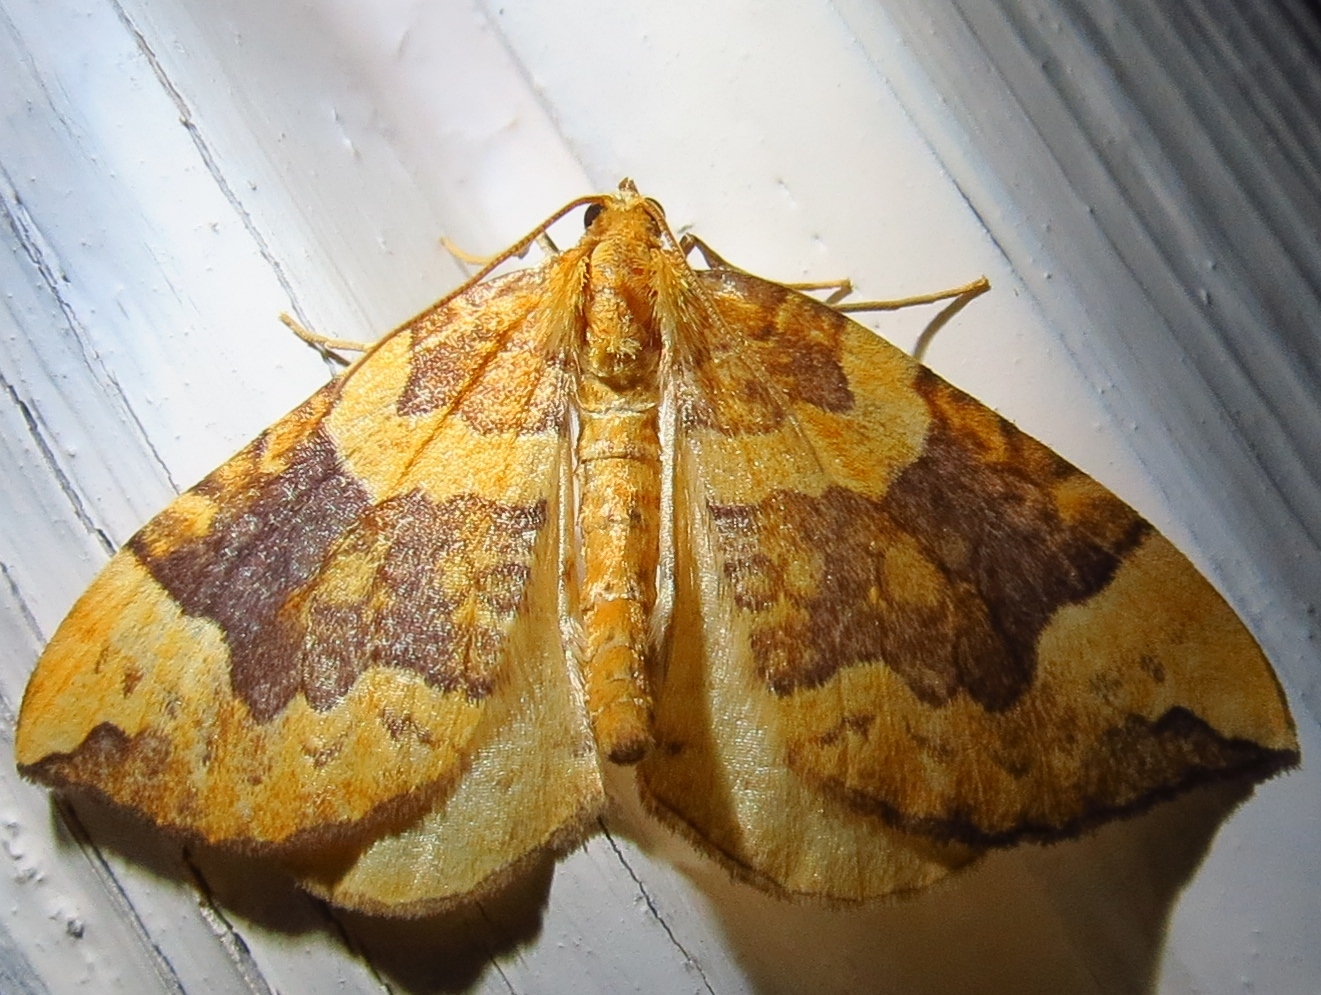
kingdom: Animalia
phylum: Arthropoda
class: Insecta
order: Lepidoptera
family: Geometridae
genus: Eulithis
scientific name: Eulithis populata
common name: Northern spinach
